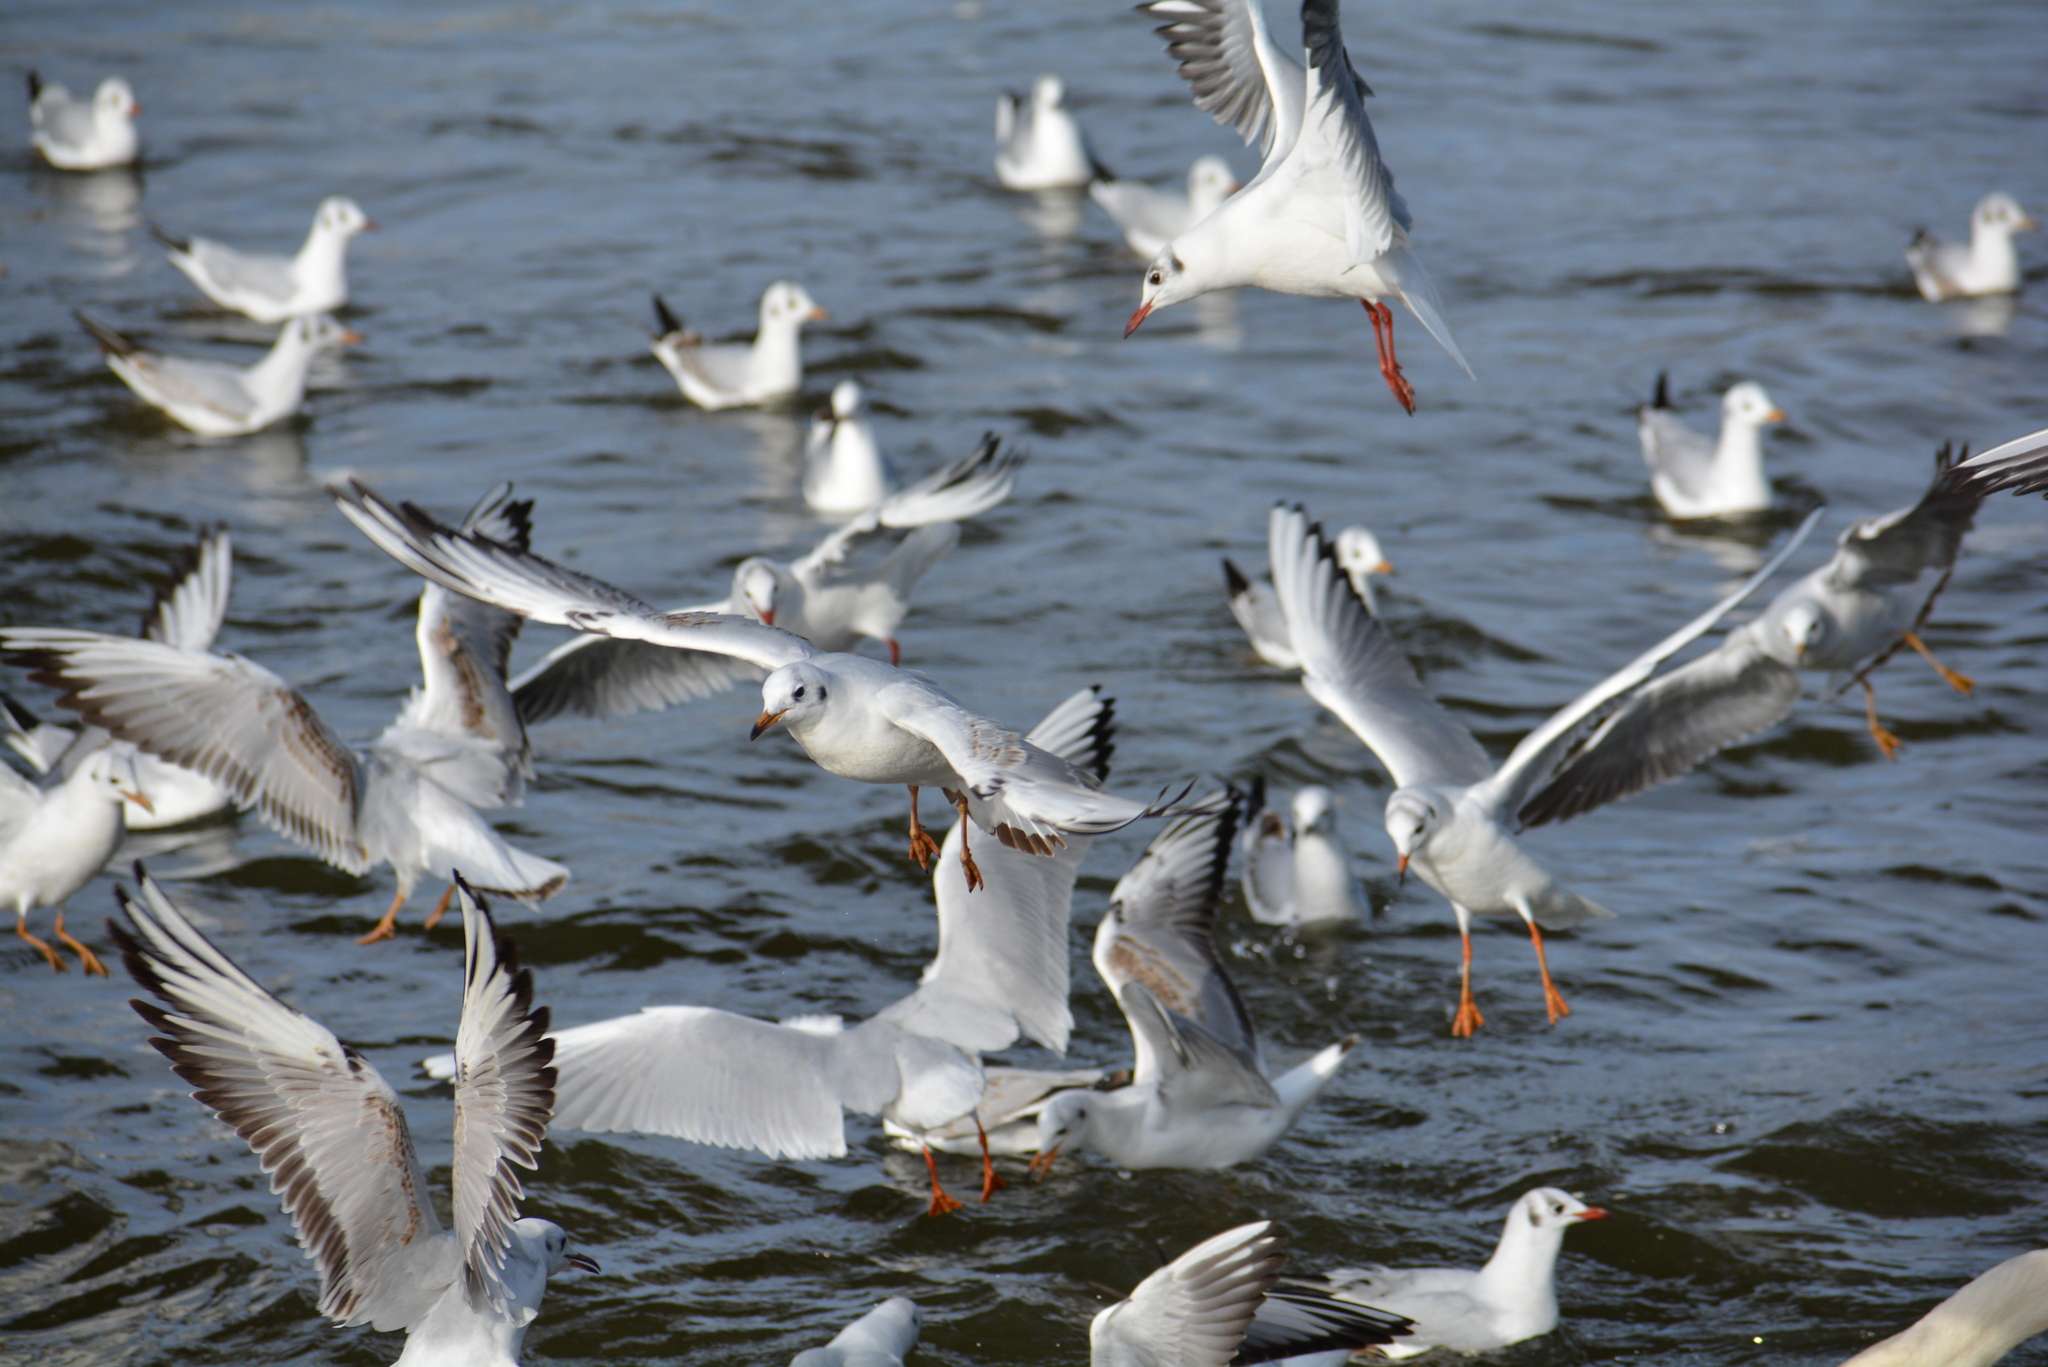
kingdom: Animalia
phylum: Chordata
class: Aves
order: Charadriiformes
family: Laridae
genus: Chroicocephalus
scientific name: Chroicocephalus ridibundus
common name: Black-headed gull
